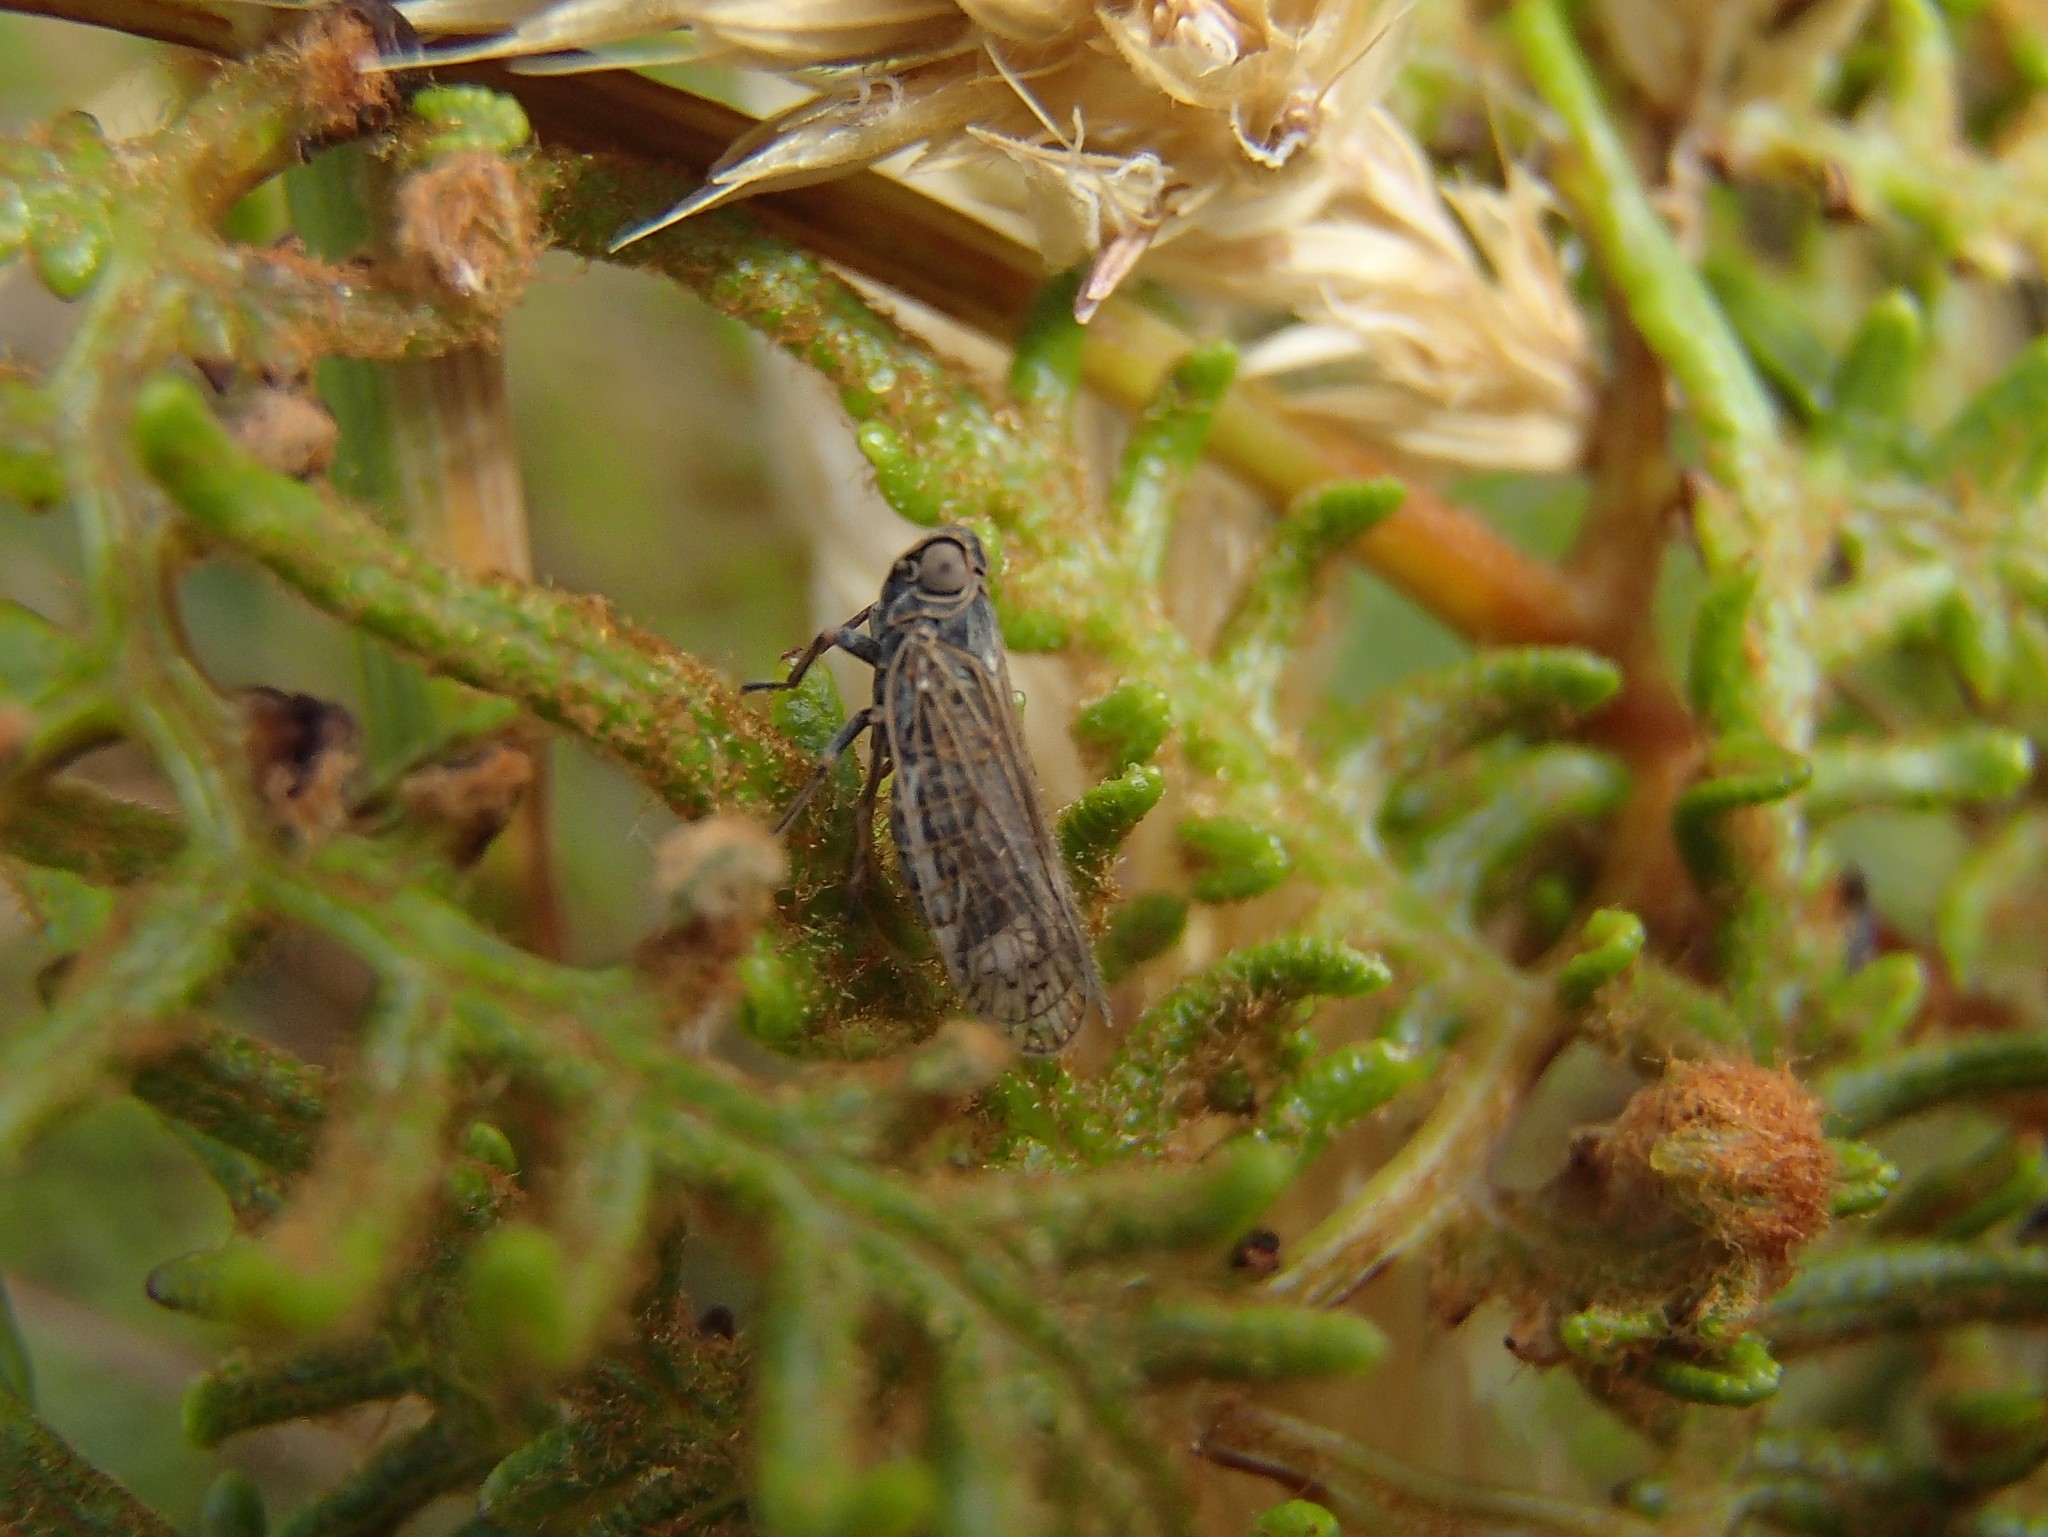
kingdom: Animalia
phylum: Arthropoda
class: Insecta
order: Hemiptera
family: Cixiidae
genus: Zeoliarus
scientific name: Zeoliarus oppositus
